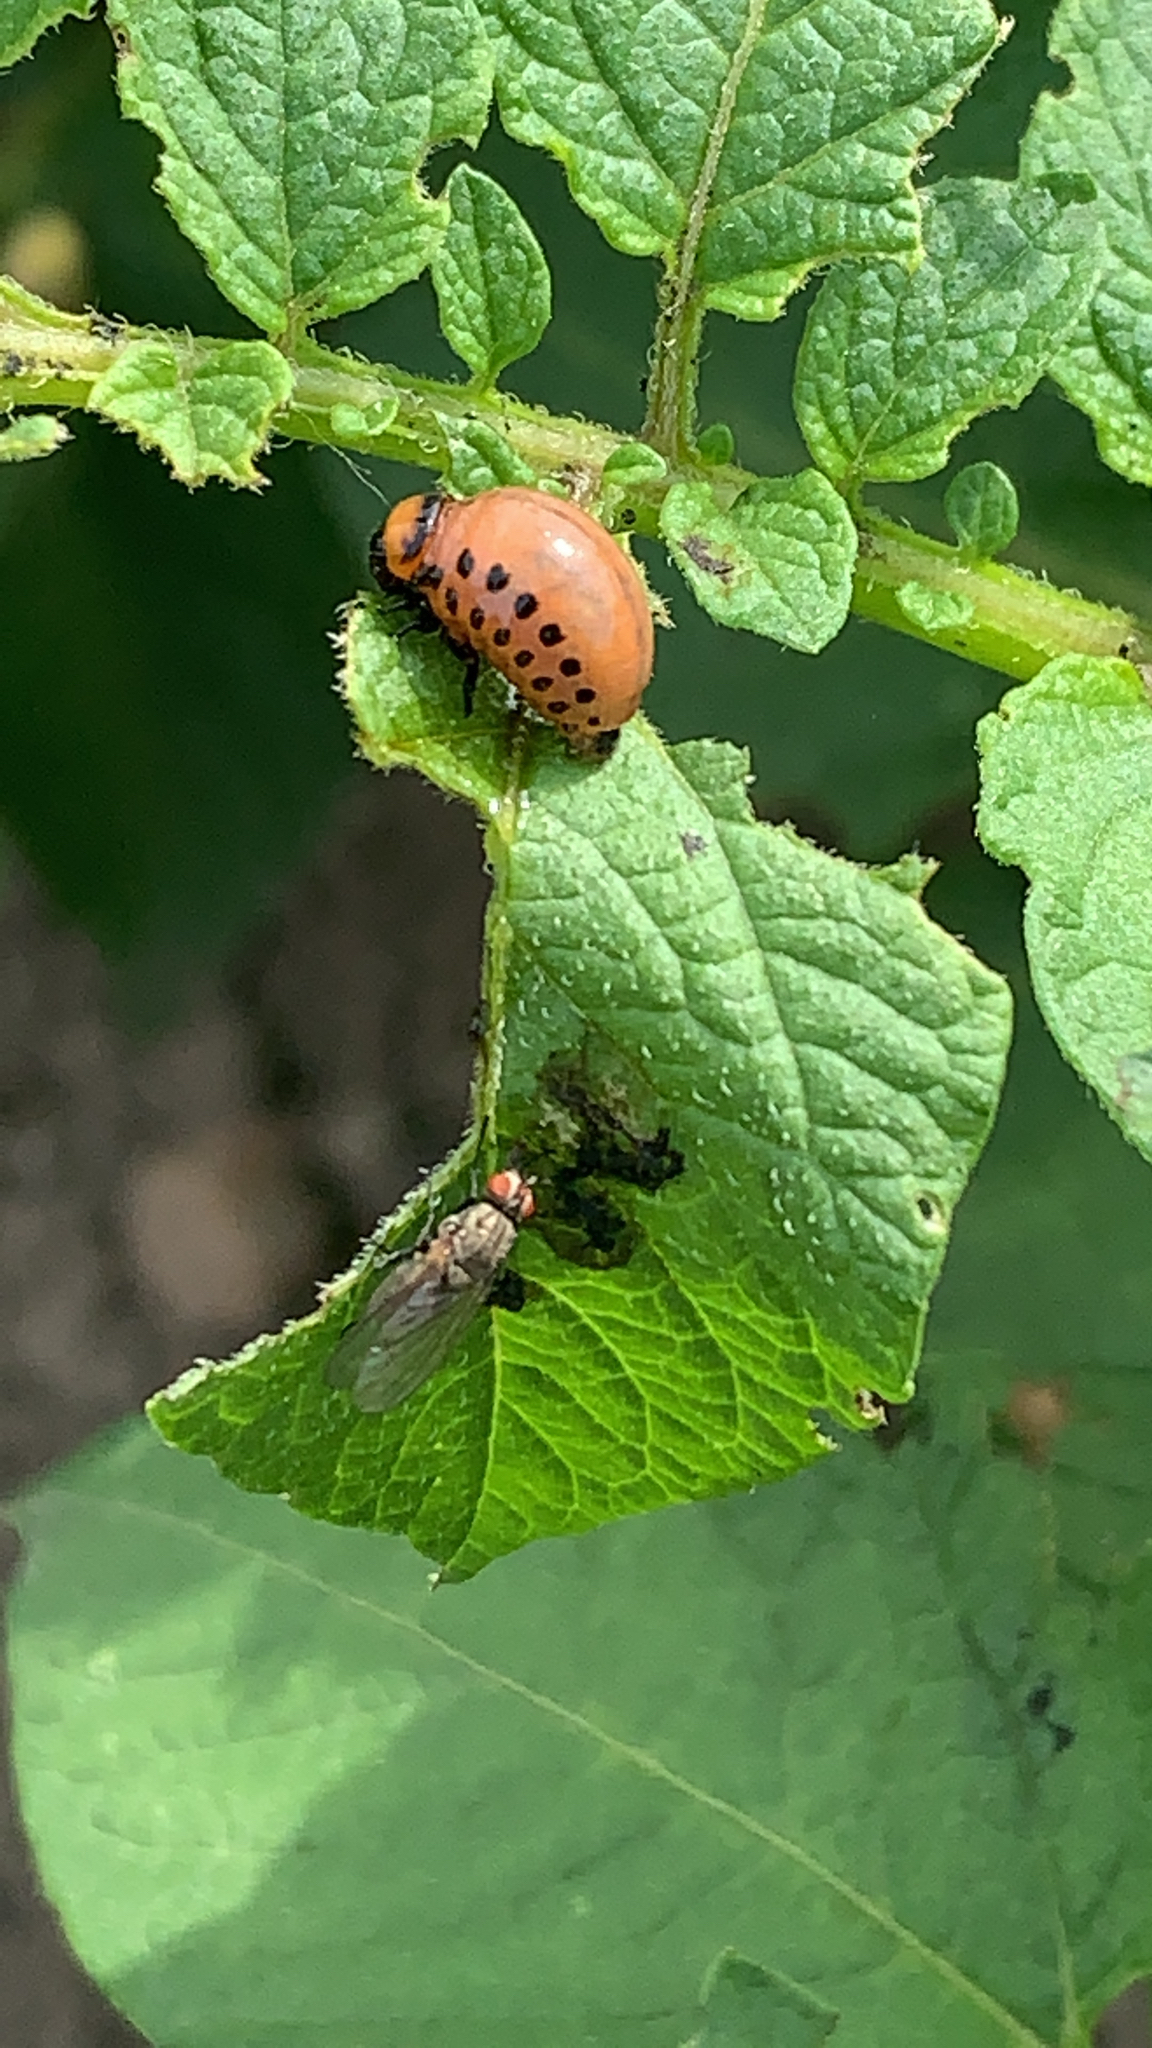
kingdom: Animalia
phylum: Arthropoda
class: Insecta
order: Coleoptera
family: Chrysomelidae
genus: Leptinotarsa
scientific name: Leptinotarsa decemlineata
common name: Colorado potato beetle
